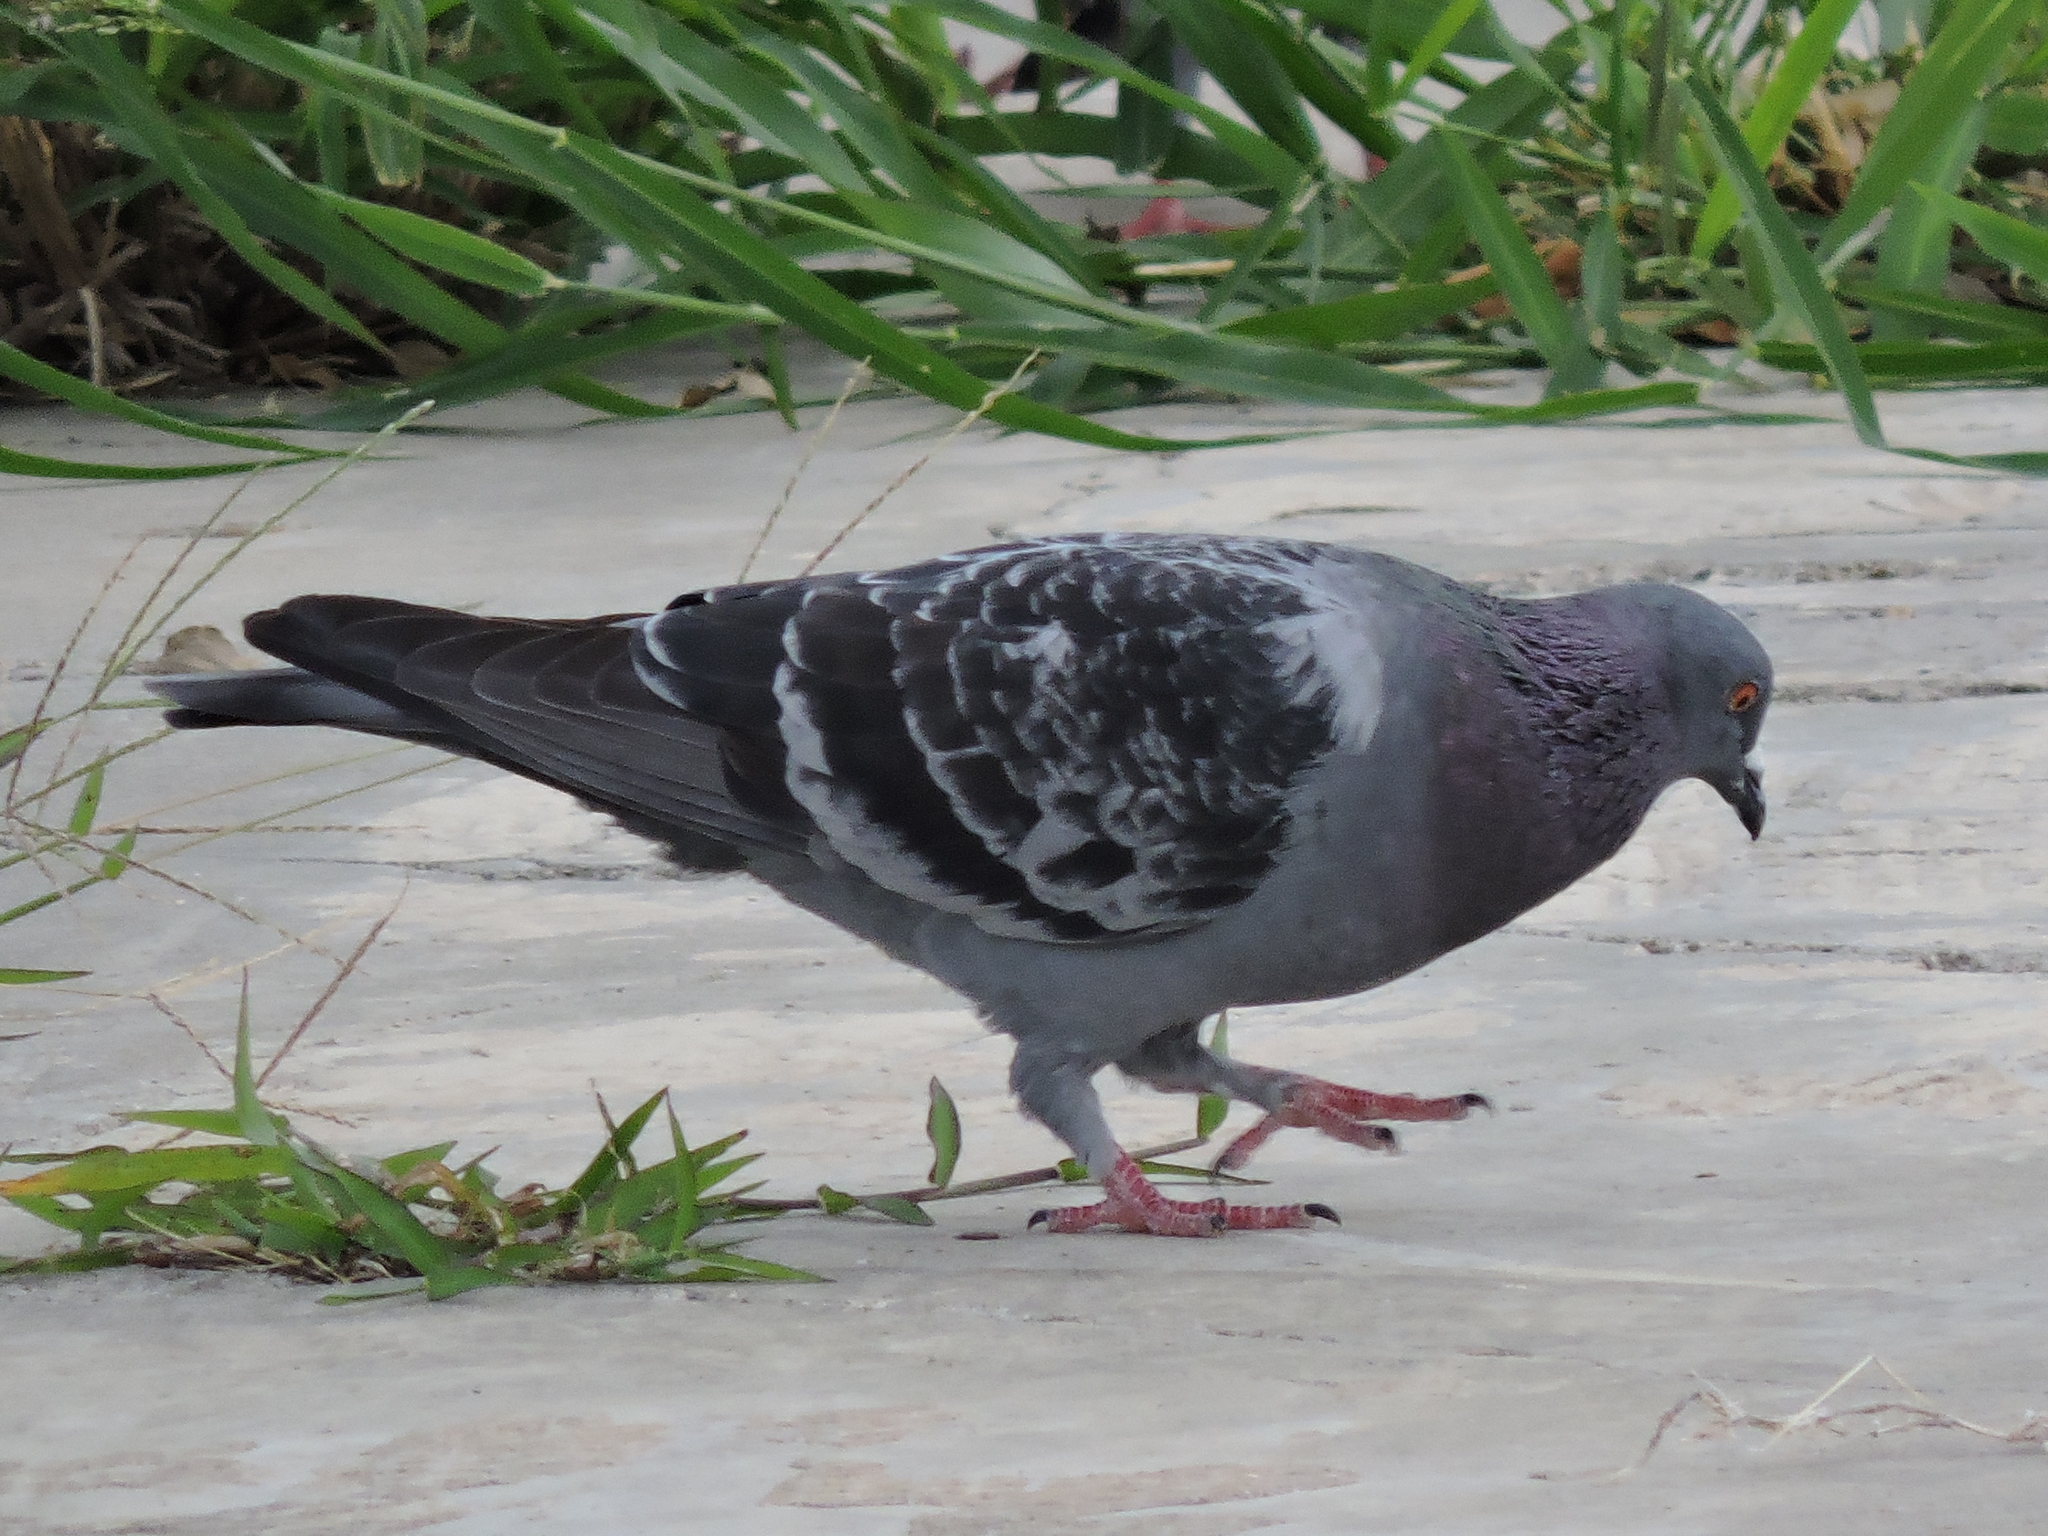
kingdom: Animalia
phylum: Chordata
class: Aves
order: Columbiformes
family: Columbidae
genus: Columba
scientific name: Columba livia
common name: Rock pigeon
